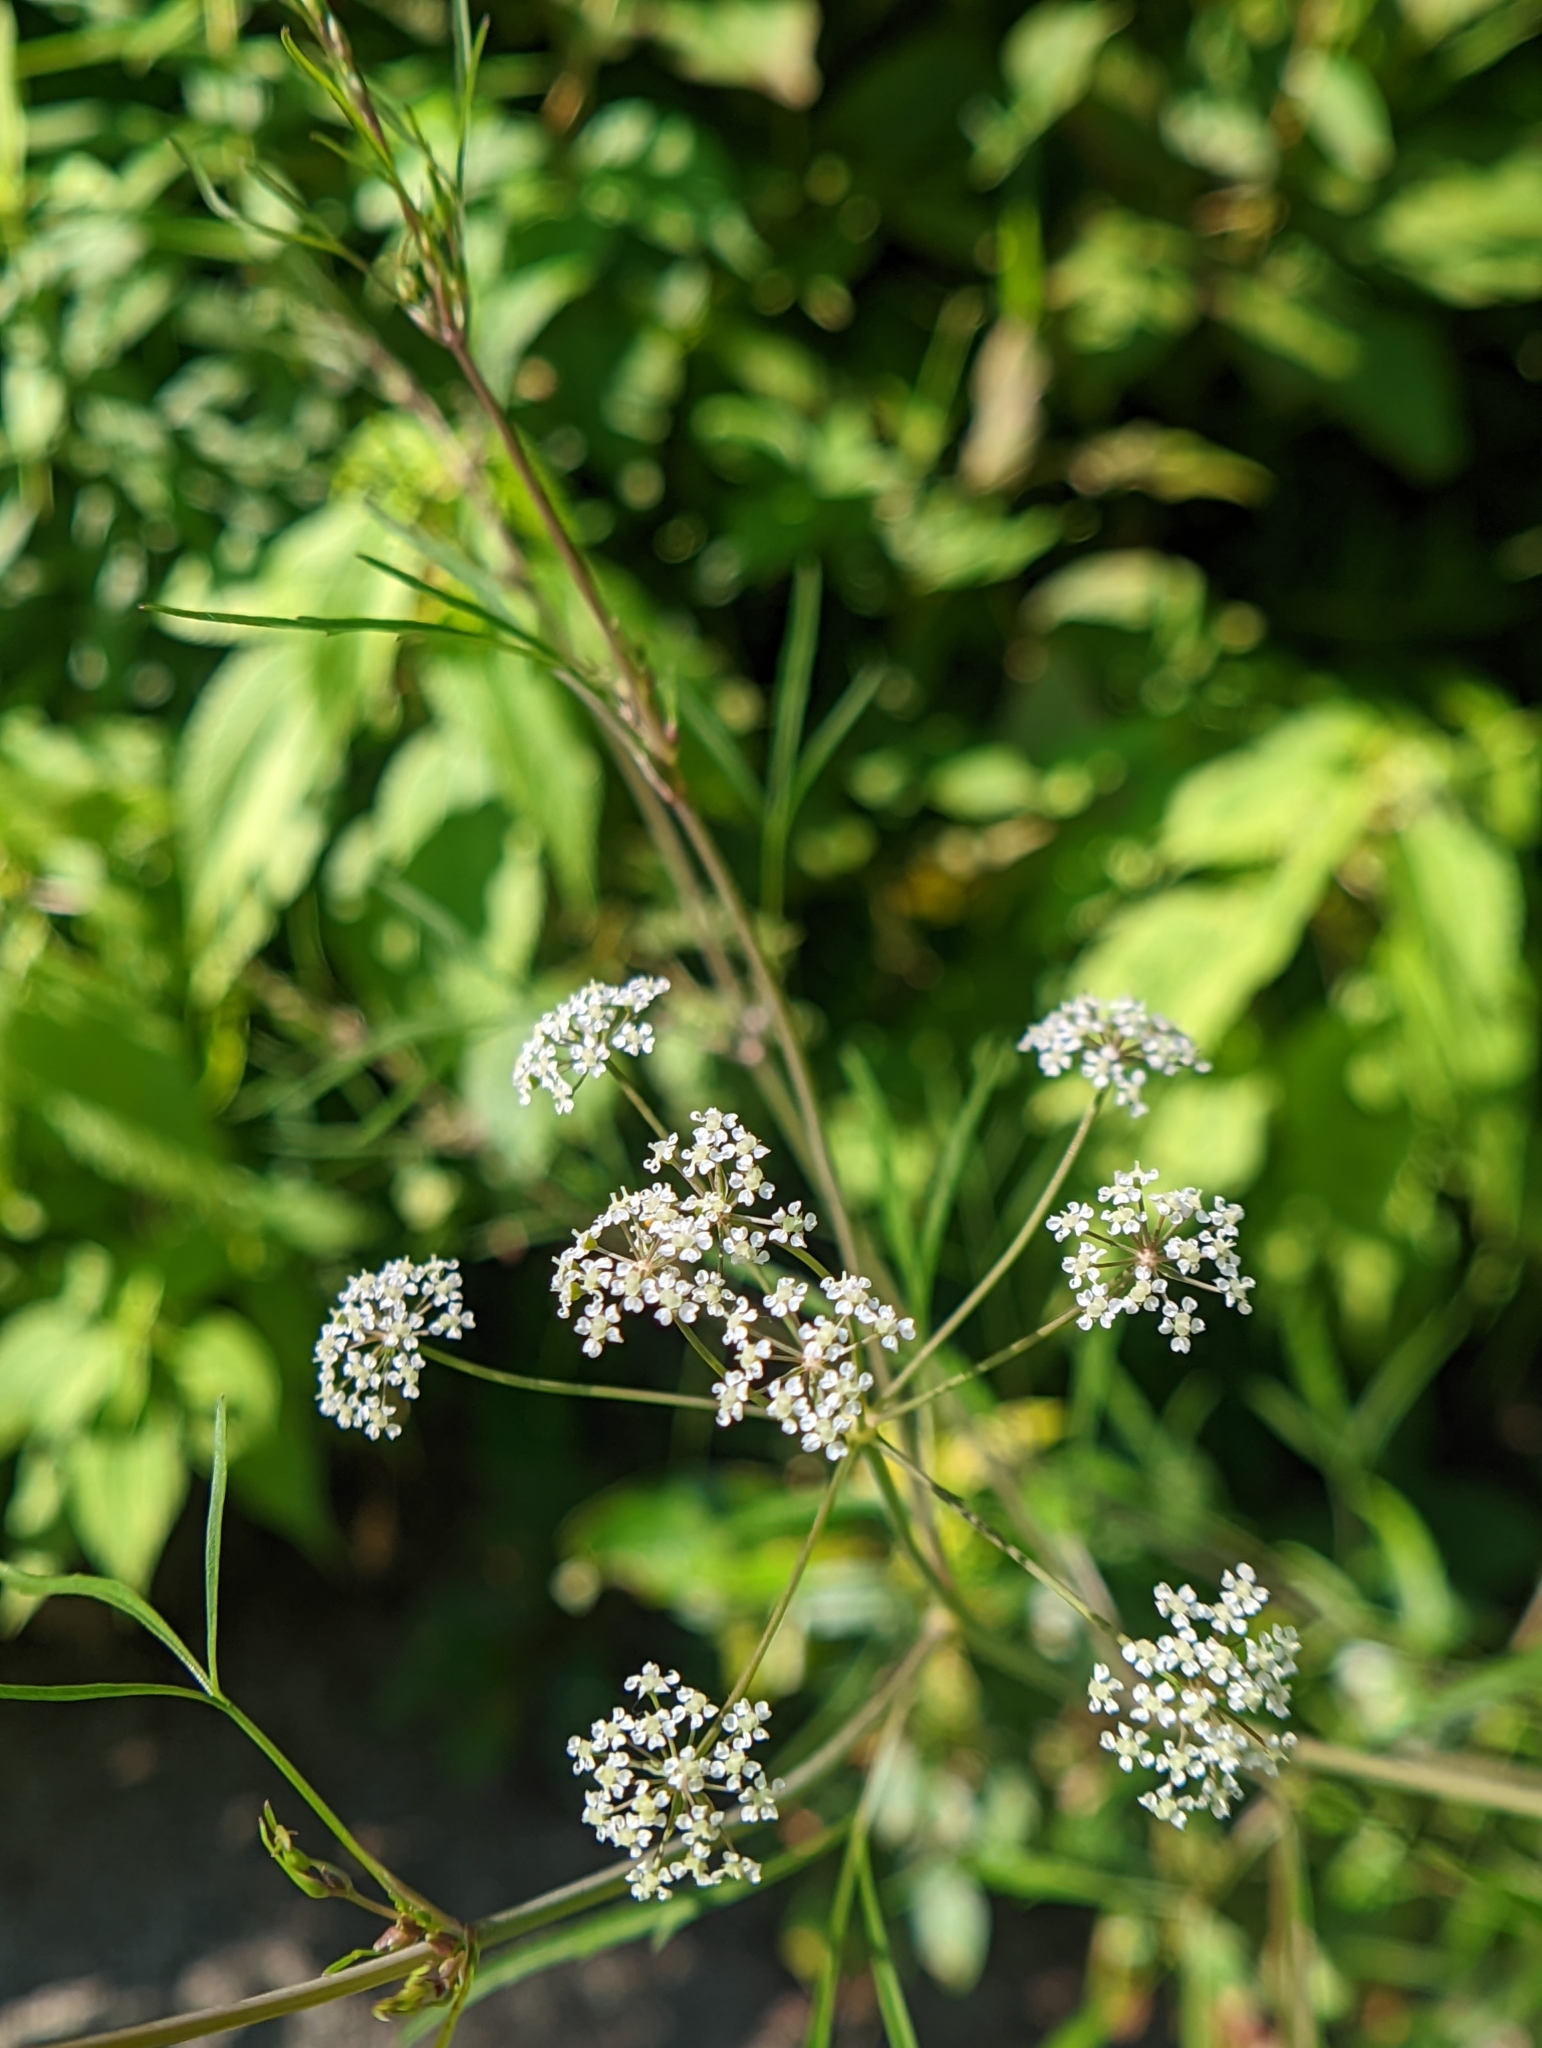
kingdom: Plantae
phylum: Tracheophyta
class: Magnoliopsida
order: Apiales
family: Apiaceae
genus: Cicuta
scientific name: Cicuta bulbifera
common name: Bulb-bearing water-hemlock
